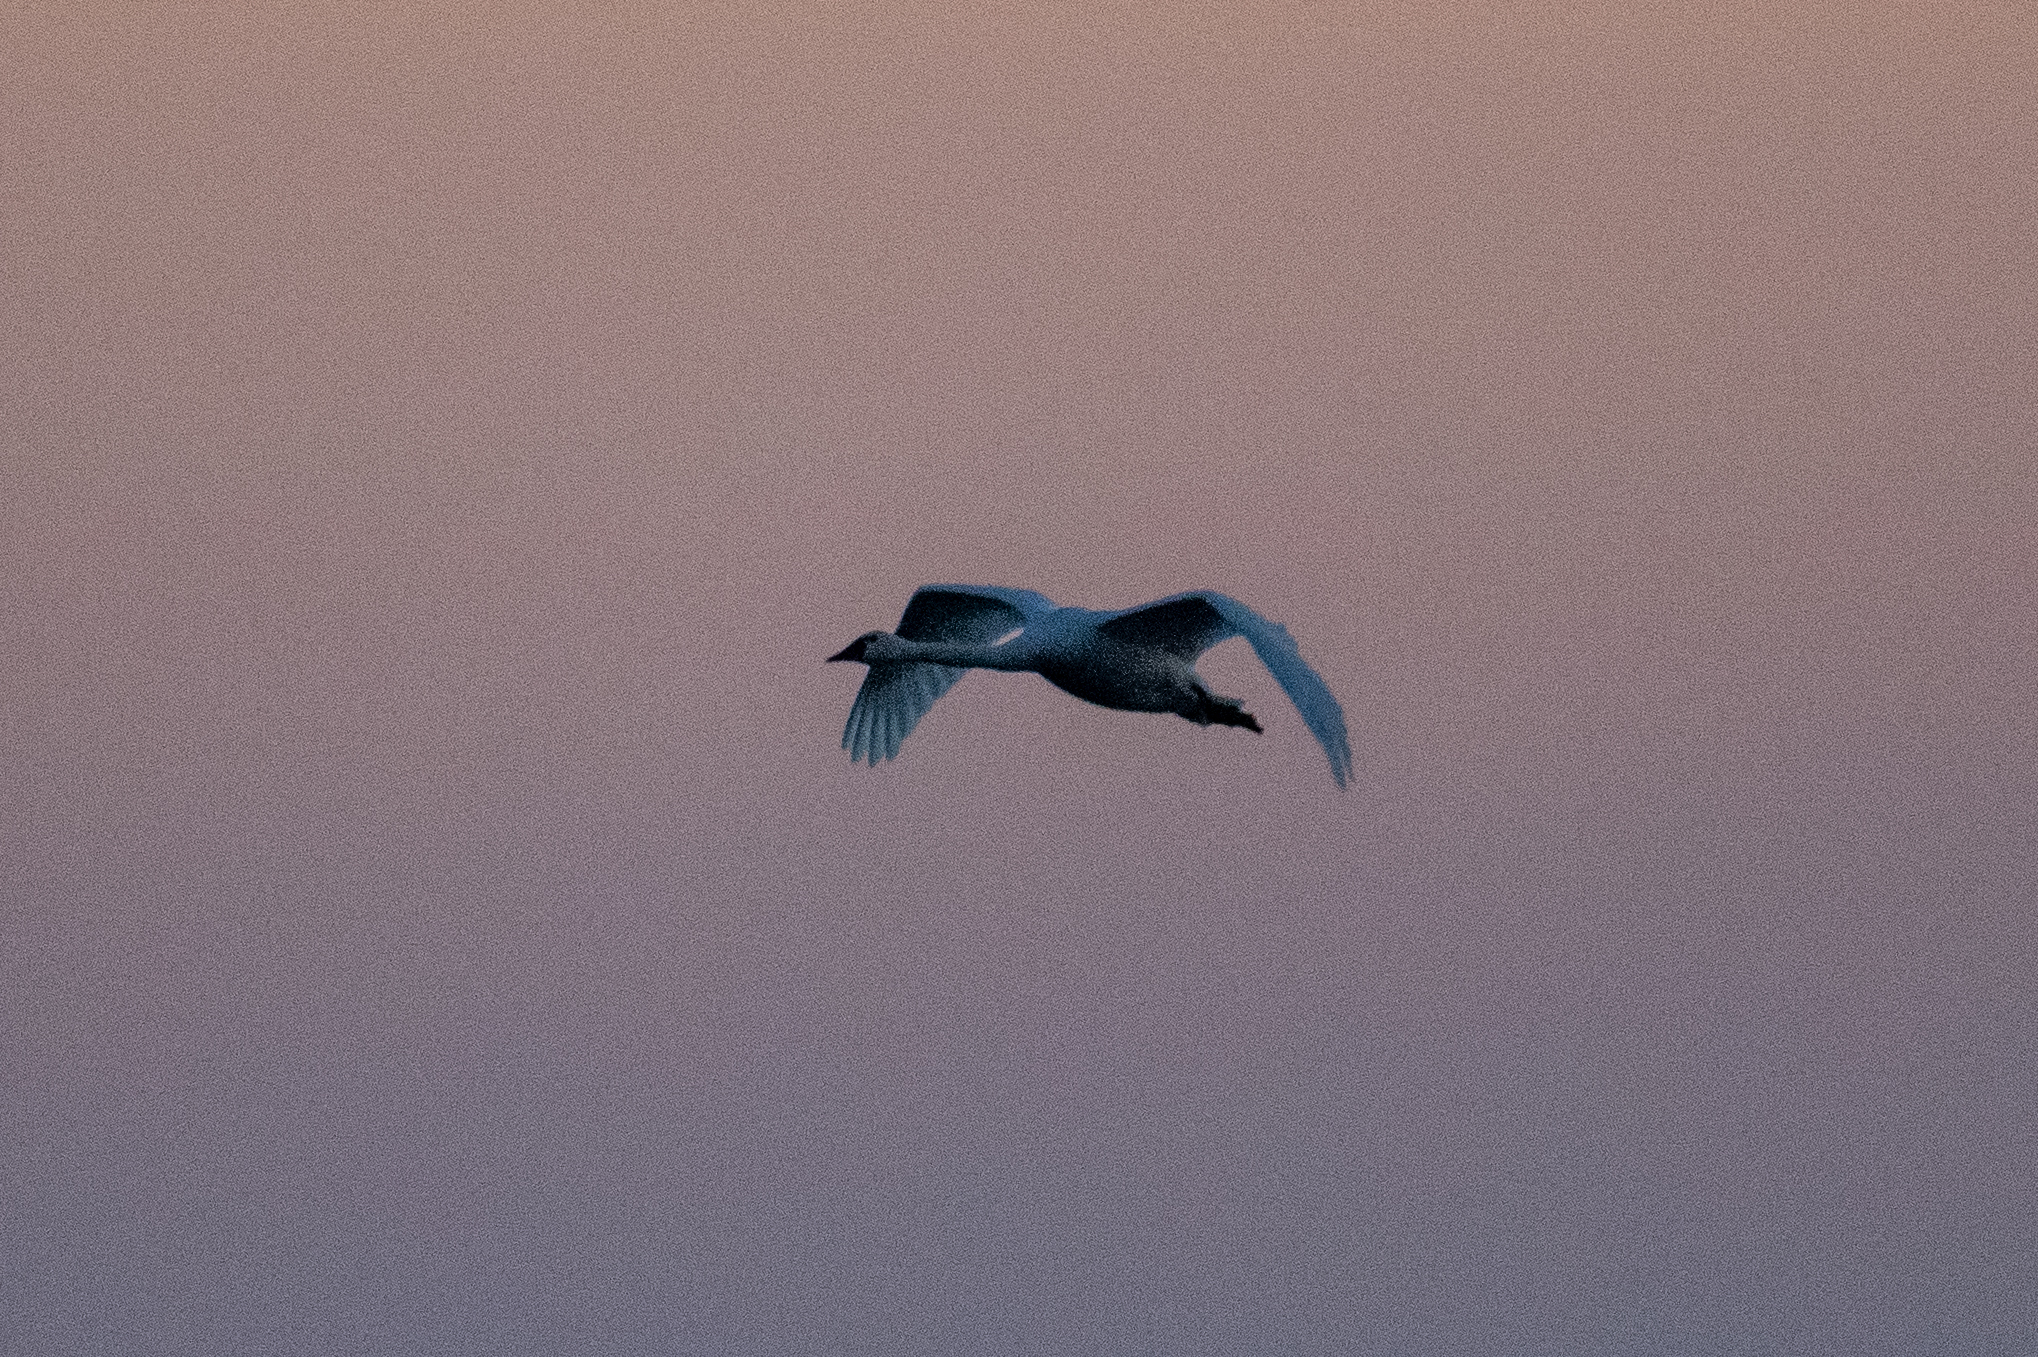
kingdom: Animalia
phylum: Chordata
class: Aves
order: Anseriformes
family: Anatidae
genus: Cygnus
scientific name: Cygnus columbianus
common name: Tundra swan
